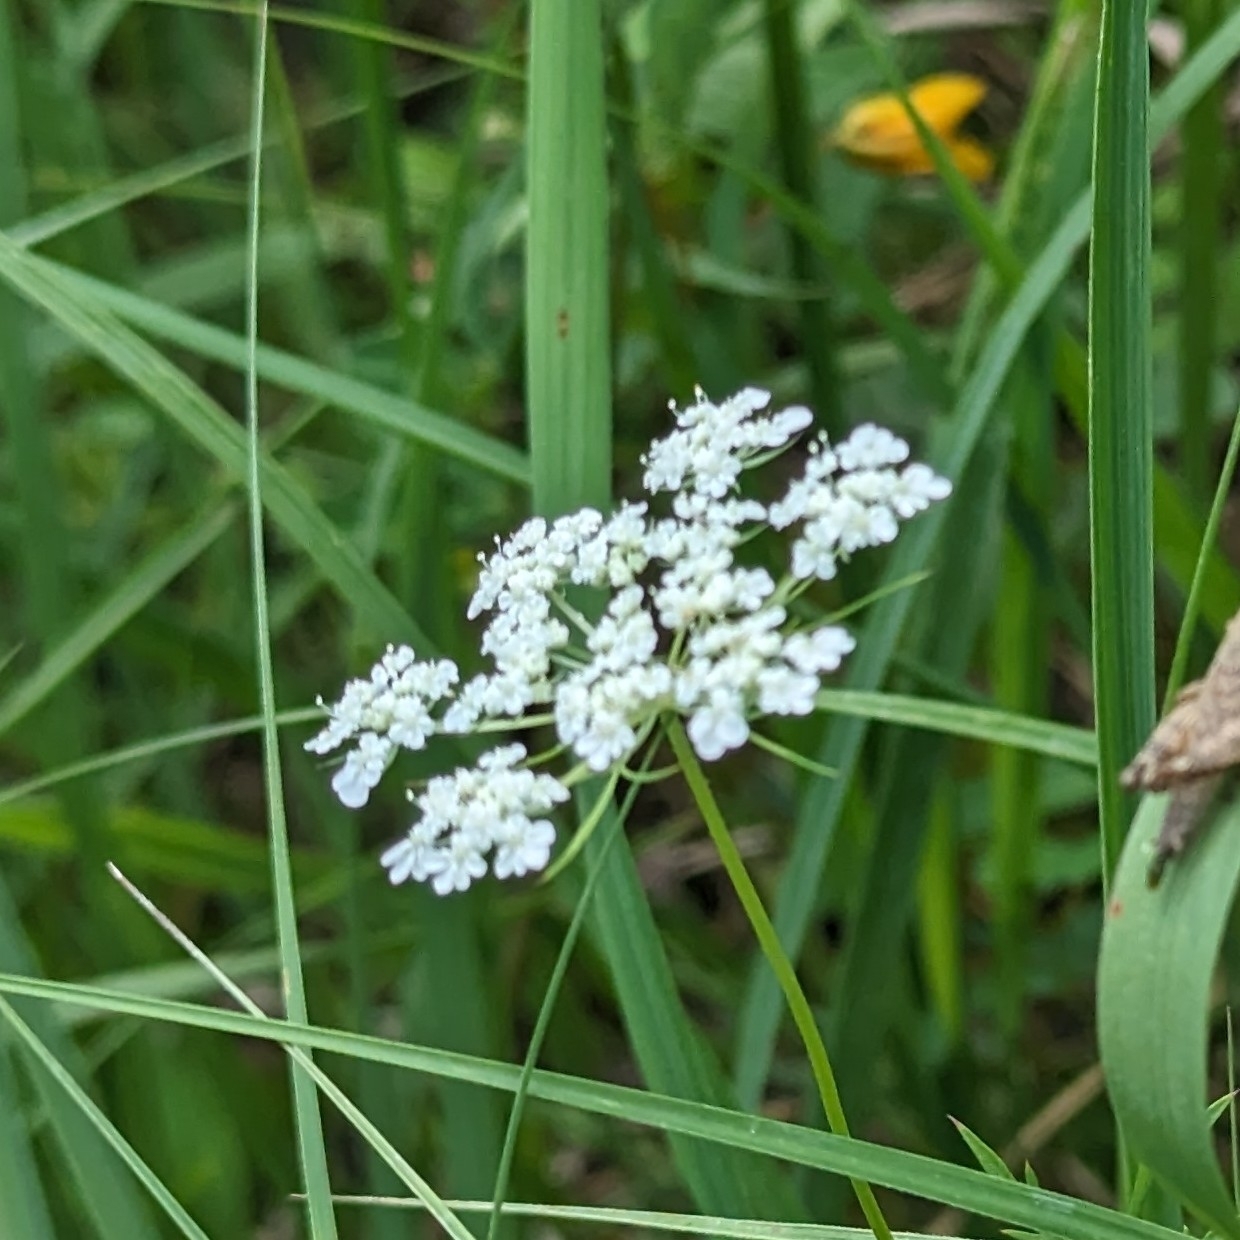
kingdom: Plantae
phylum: Tracheophyta
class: Magnoliopsida
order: Apiales
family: Apiaceae
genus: Daucus
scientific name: Daucus carota
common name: Wild carrot
